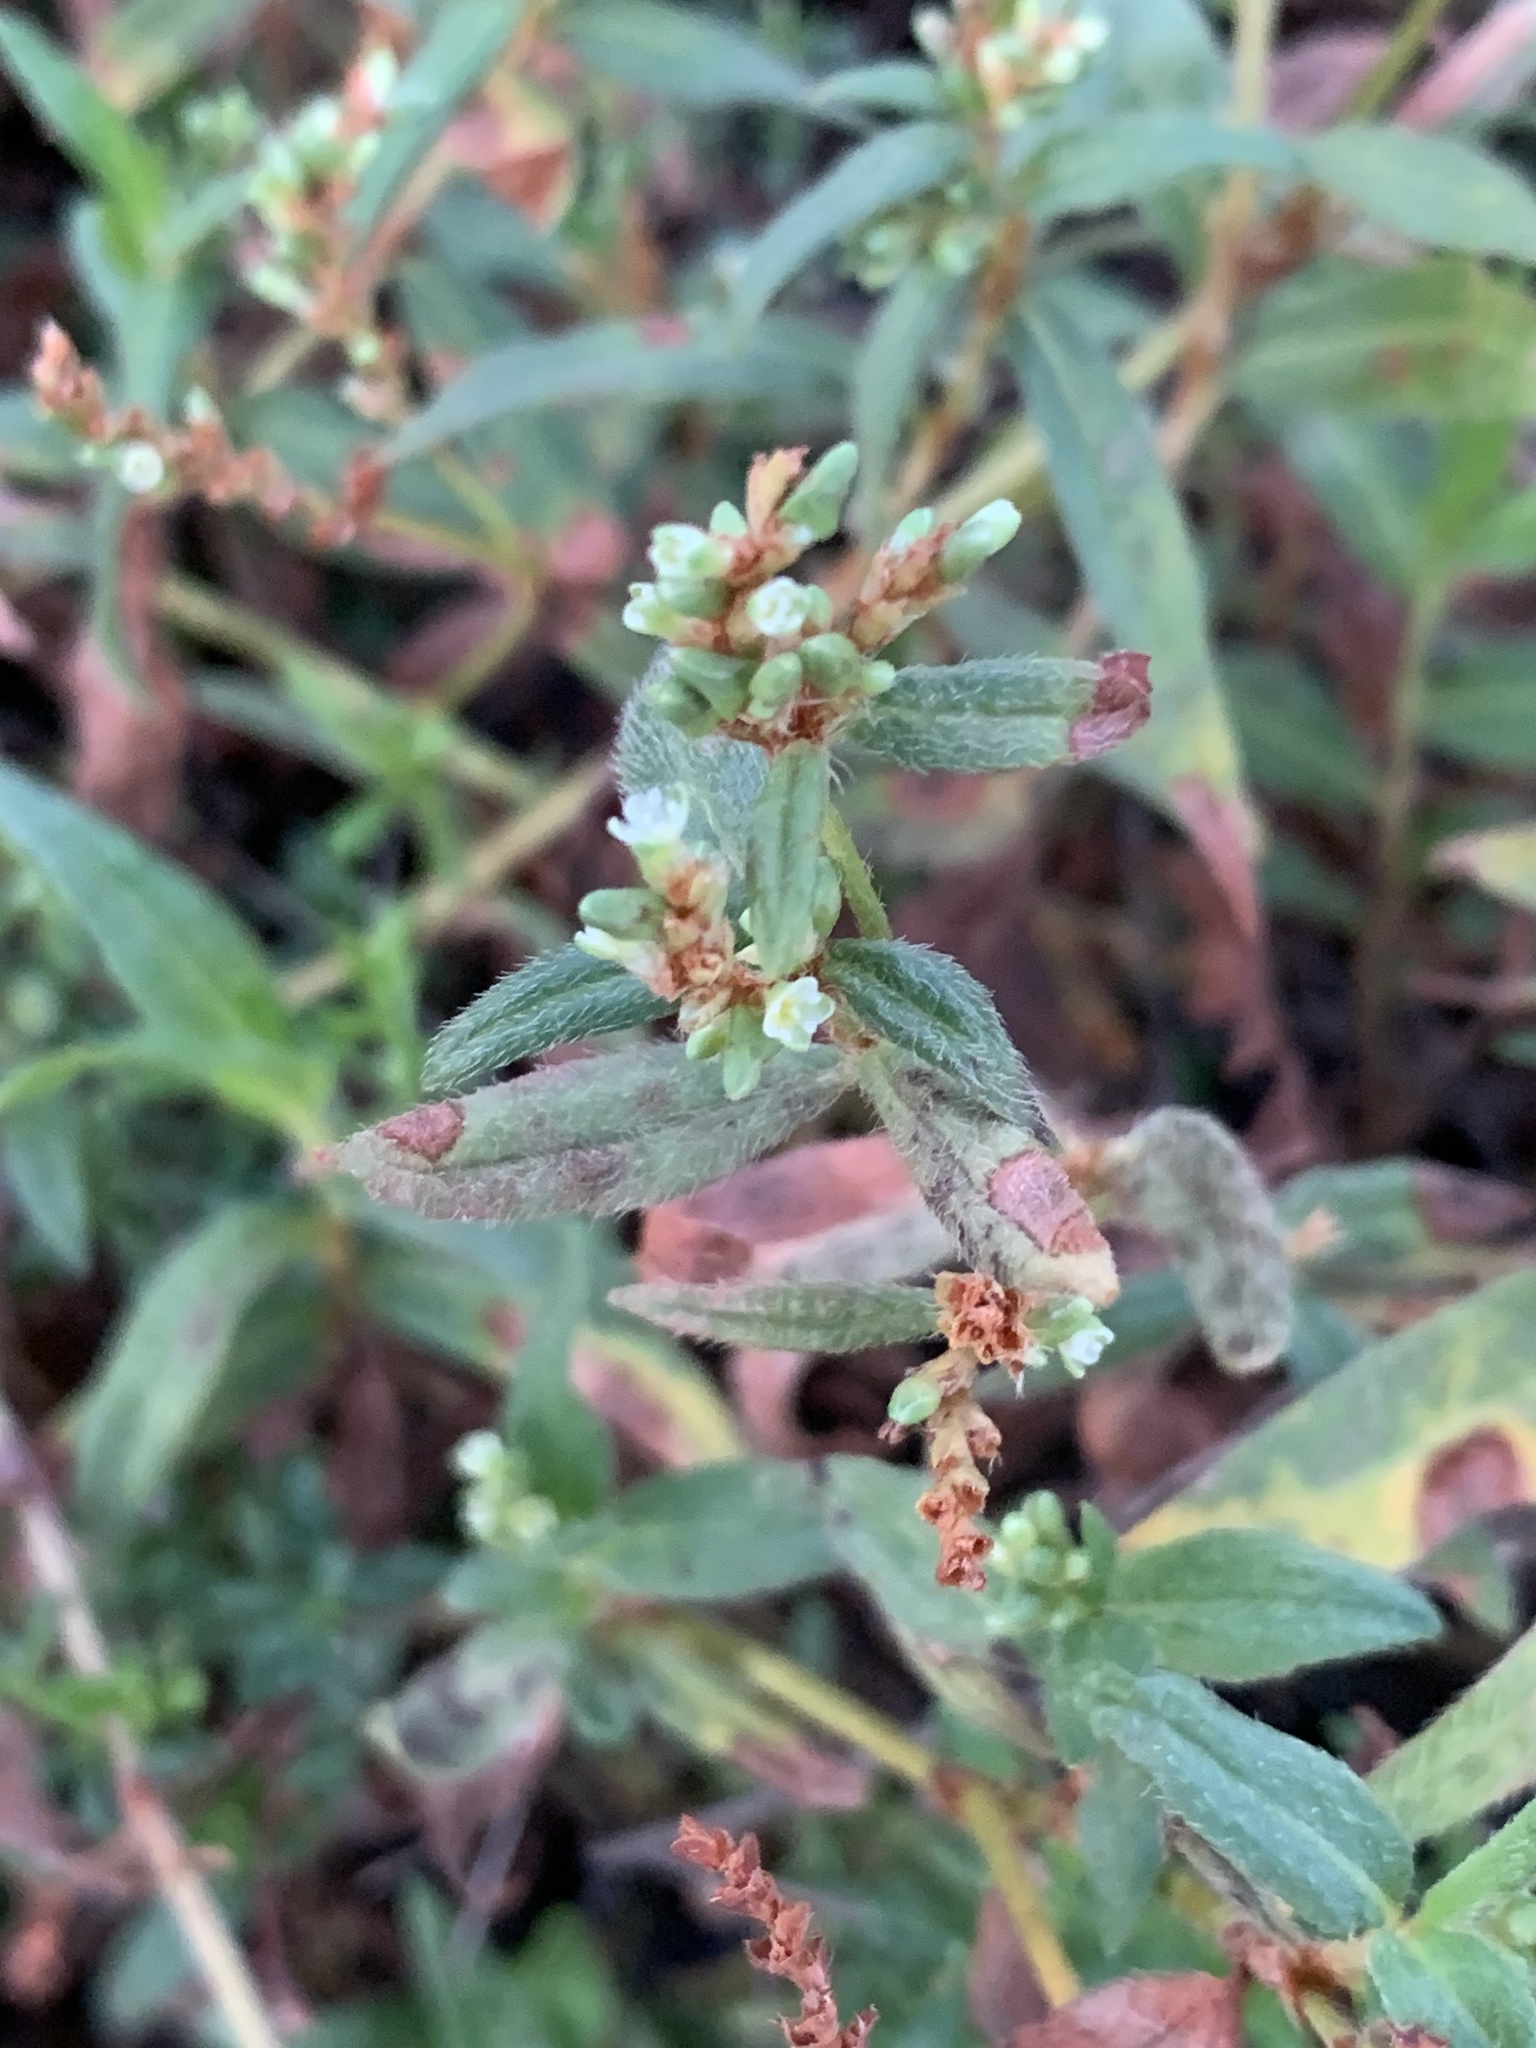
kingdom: Plantae
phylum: Tracheophyta
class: Magnoliopsida
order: Caryophyllales
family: Polygonaceae
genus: Persicaria
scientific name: Persicaria prostrata
